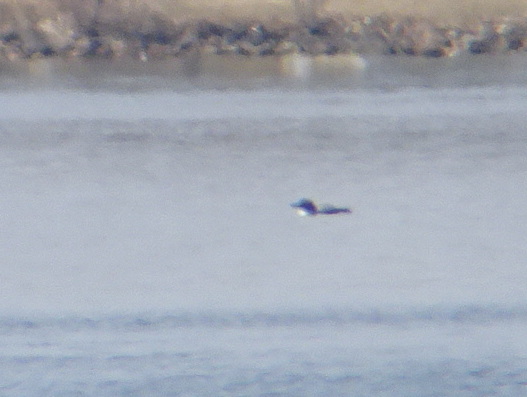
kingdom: Animalia
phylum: Chordata
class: Aves
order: Gaviiformes
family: Gaviidae
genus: Gavia
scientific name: Gavia immer
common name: Common loon
